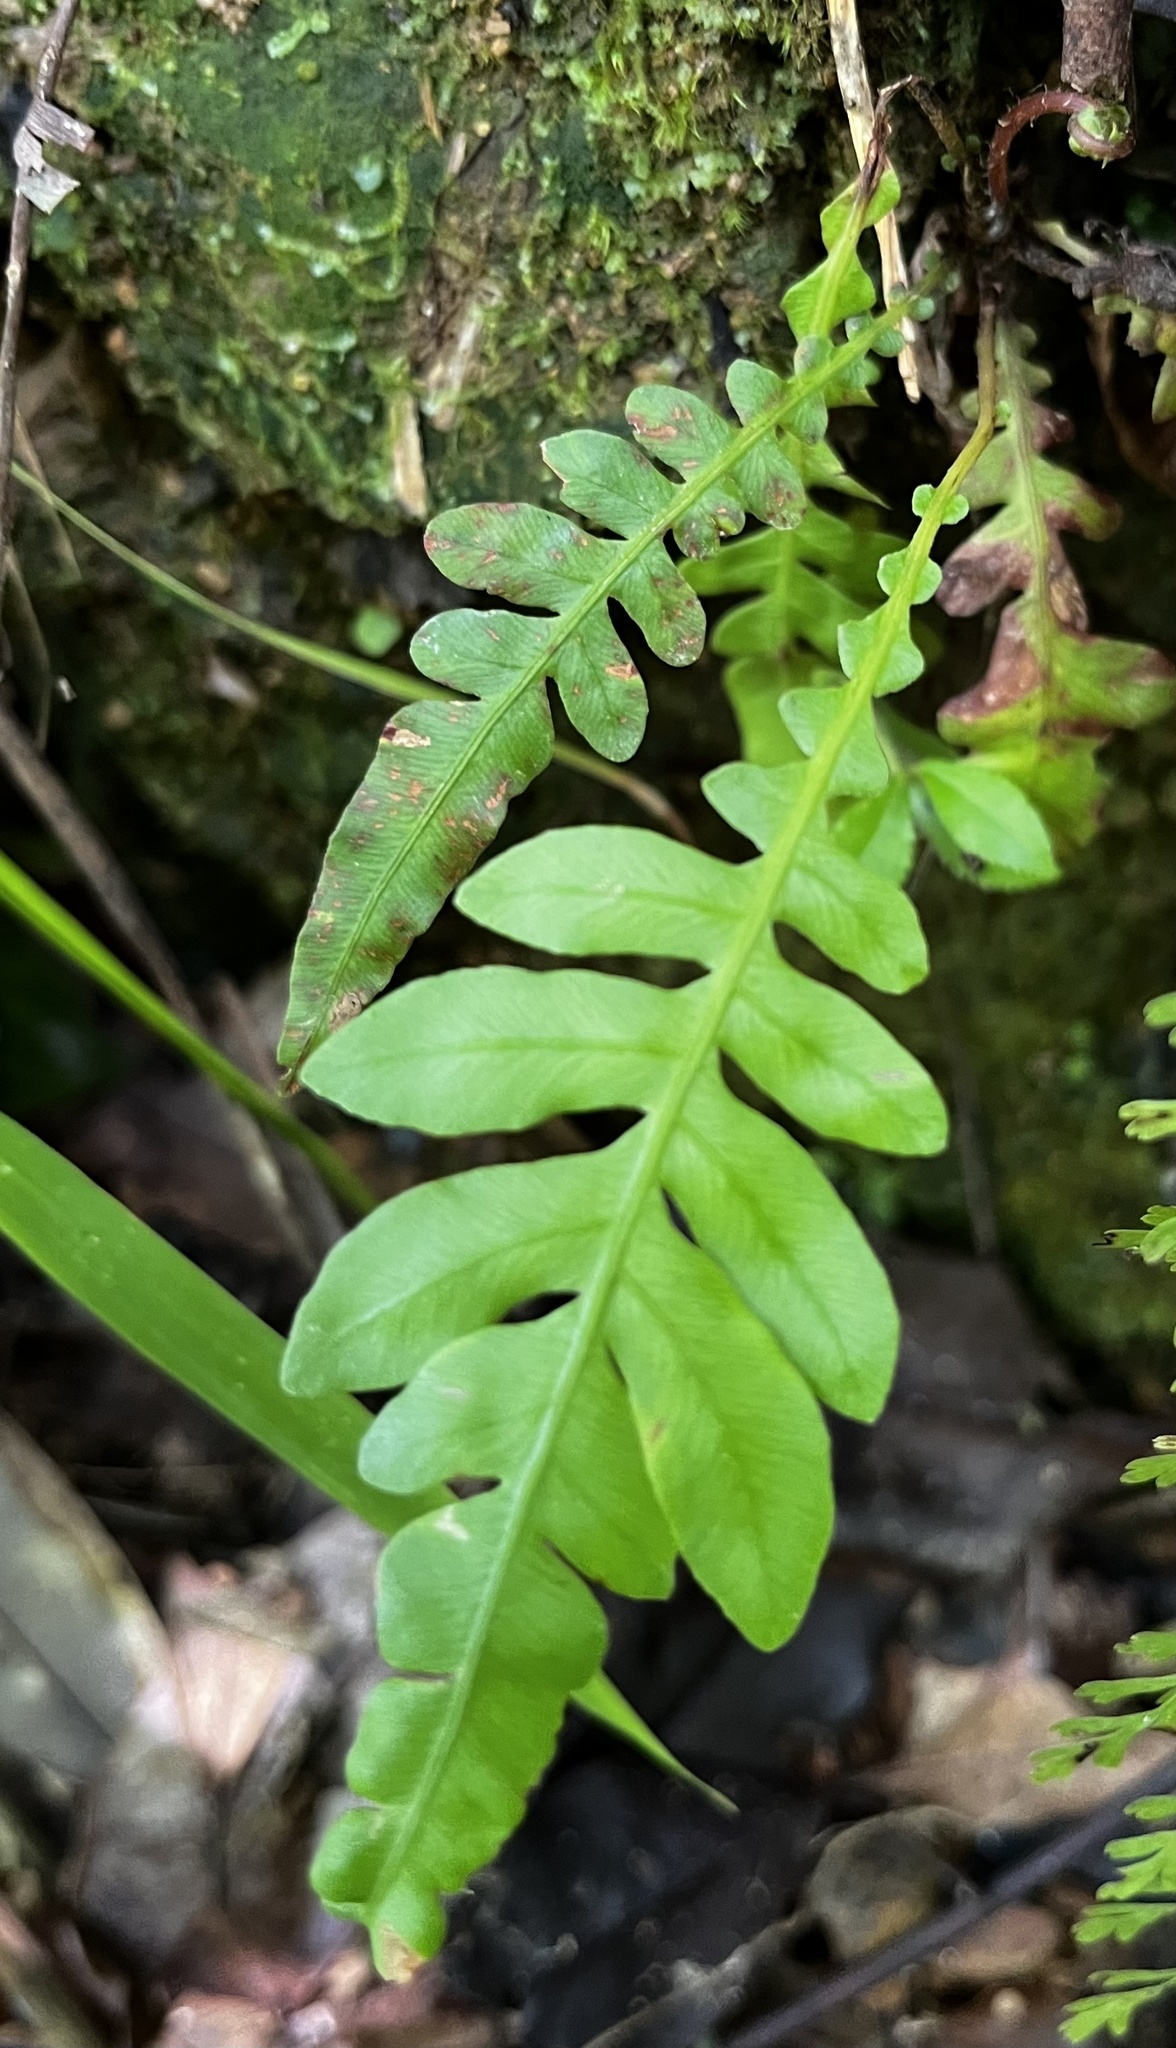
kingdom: Plantae
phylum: Tracheophyta
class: Polypodiopsida
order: Polypodiales
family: Blechnaceae
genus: Blechnopsis
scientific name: Blechnopsis orientalis
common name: Oriental blechnum
